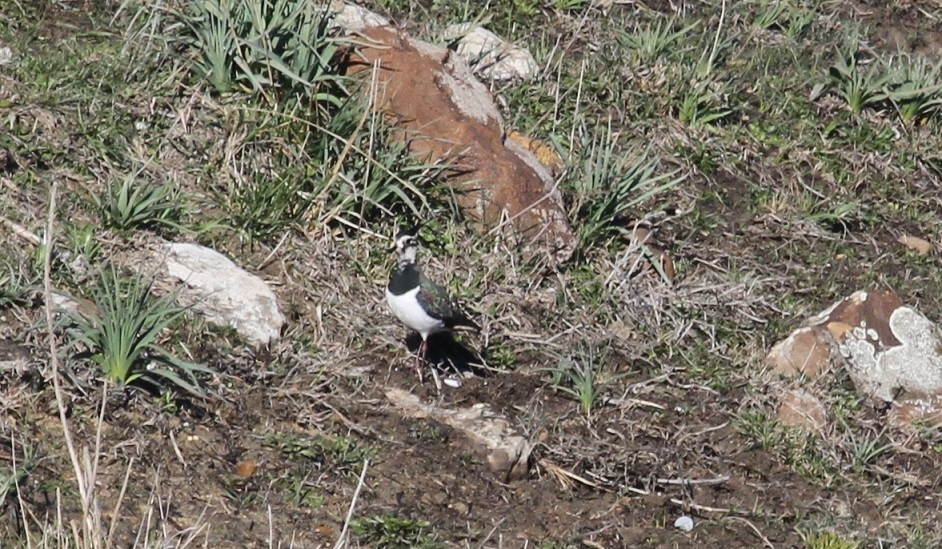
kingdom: Animalia
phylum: Chordata
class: Aves
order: Charadriiformes
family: Charadriidae
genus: Vanellus
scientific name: Vanellus vanellus
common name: Northern lapwing
